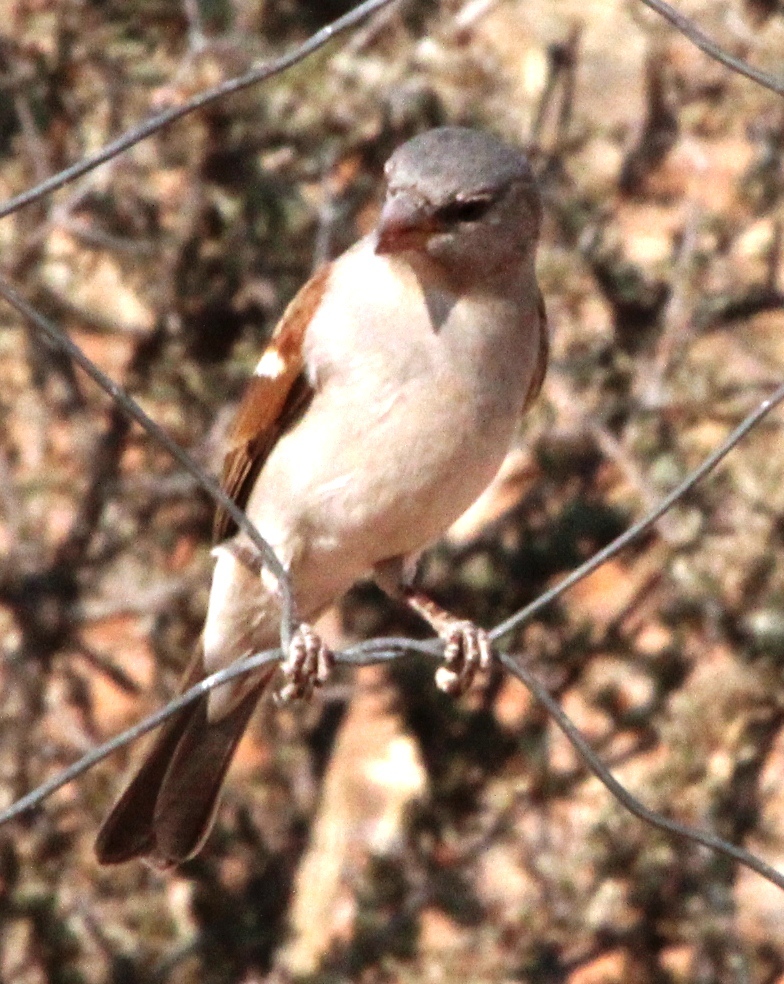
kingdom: Animalia
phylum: Chordata
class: Aves
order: Passeriformes
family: Passeridae
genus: Passer
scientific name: Passer diffusus
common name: Southern grey-headed sparrow
